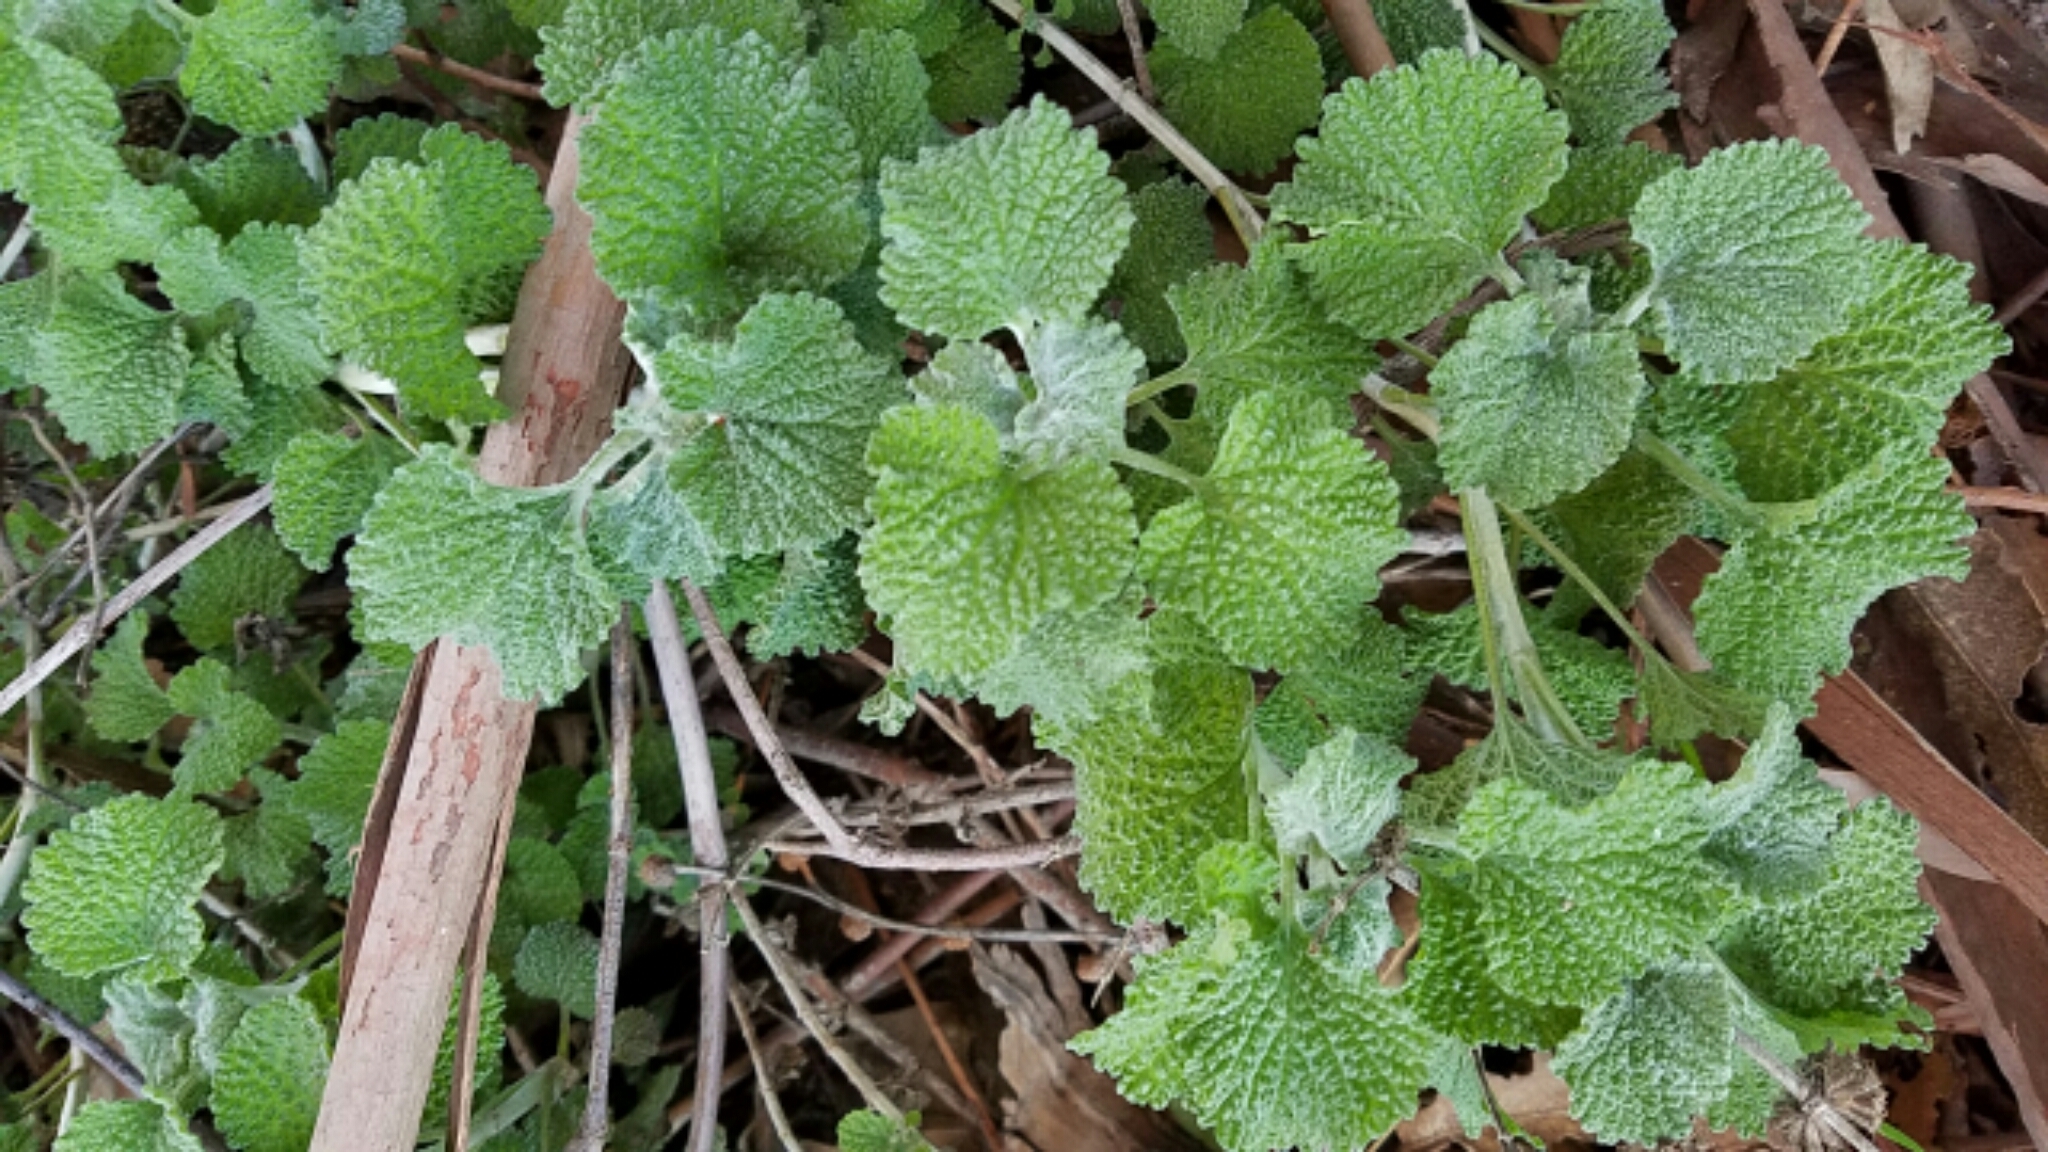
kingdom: Plantae
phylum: Tracheophyta
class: Magnoliopsida
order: Lamiales
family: Lamiaceae
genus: Marrubium
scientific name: Marrubium vulgare
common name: Horehound
